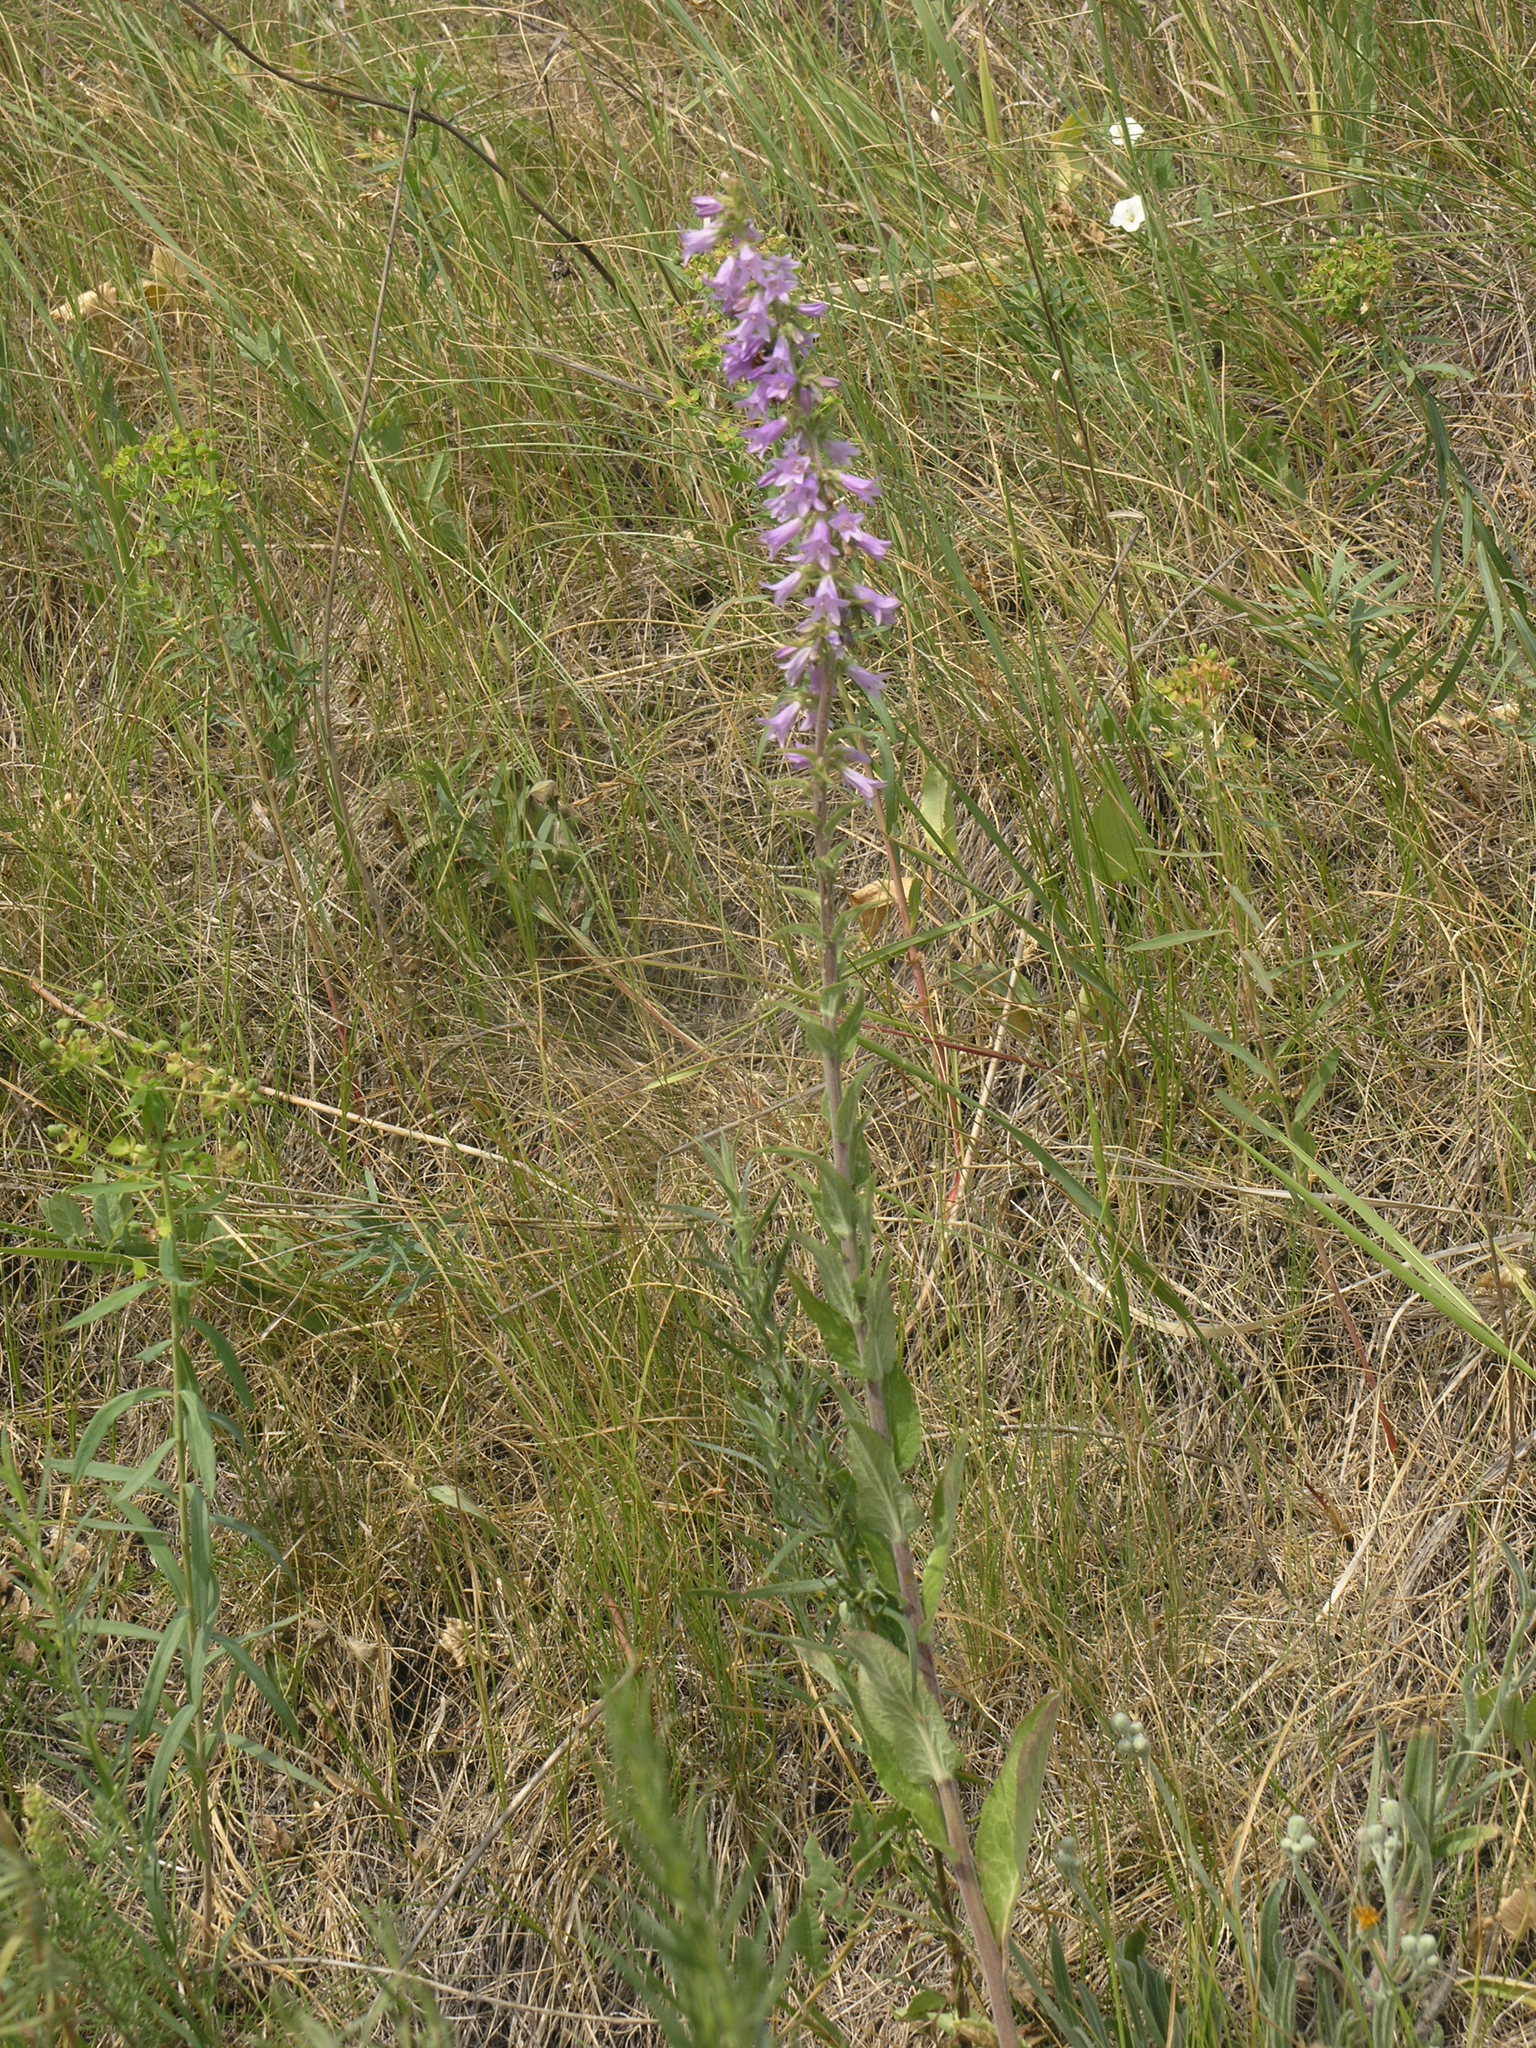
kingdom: Plantae
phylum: Tracheophyta
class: Magnoliopsida
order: Asterales
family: Campanulaceae
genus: Campanula
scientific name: Campanula bononiensis
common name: Pale bellflower
